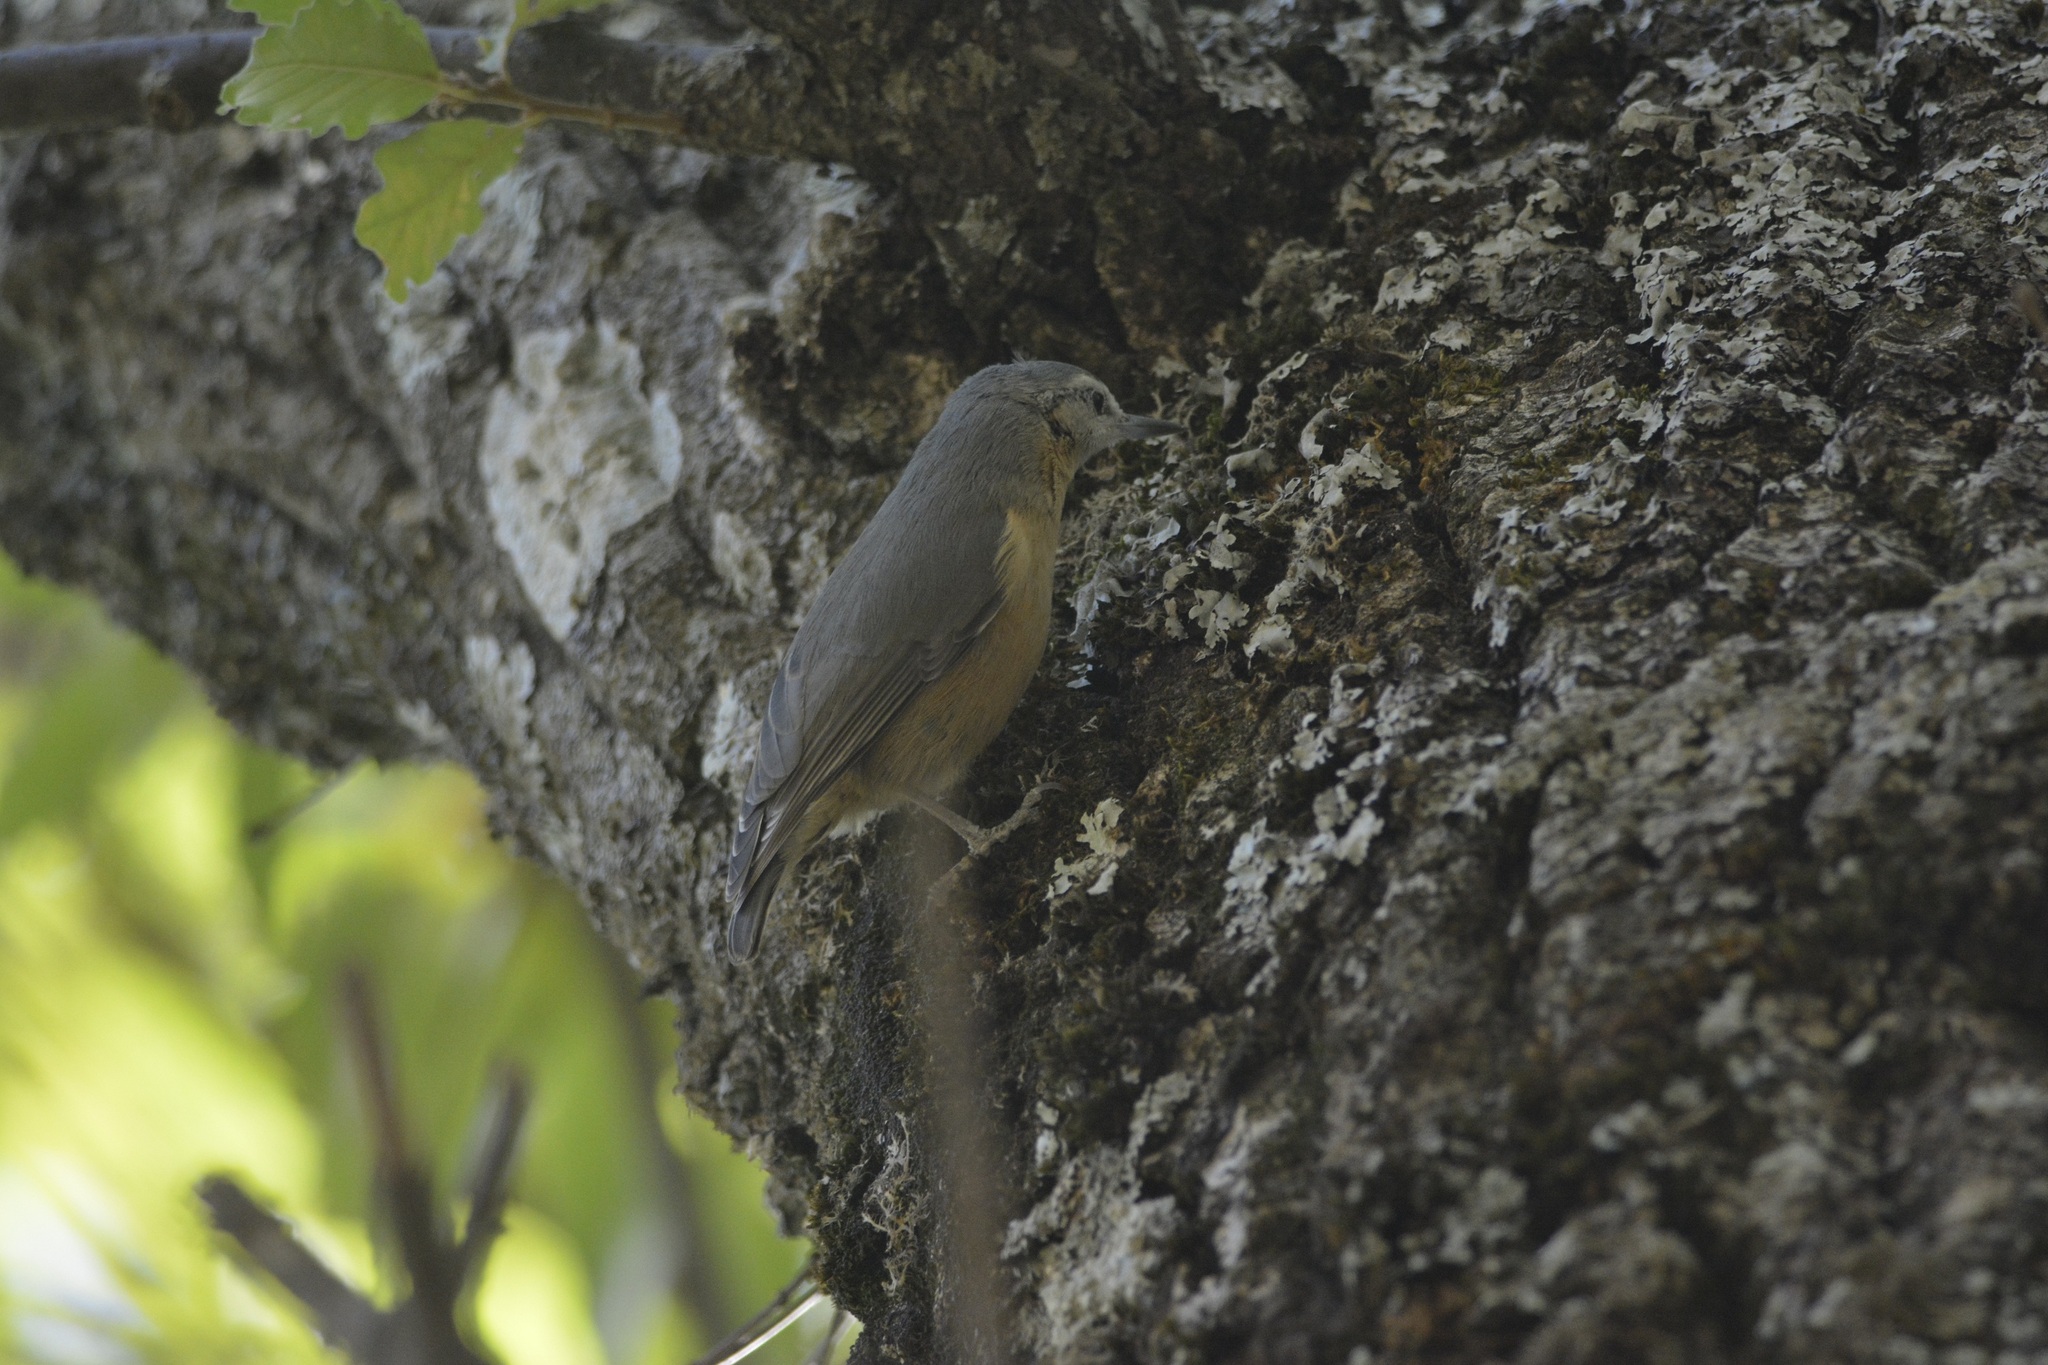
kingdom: Animalia
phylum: Chordata
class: Aves
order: Passeriformes
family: Sittidae
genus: Sitta
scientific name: Sitta ledanti
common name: Algerian nuthatch
